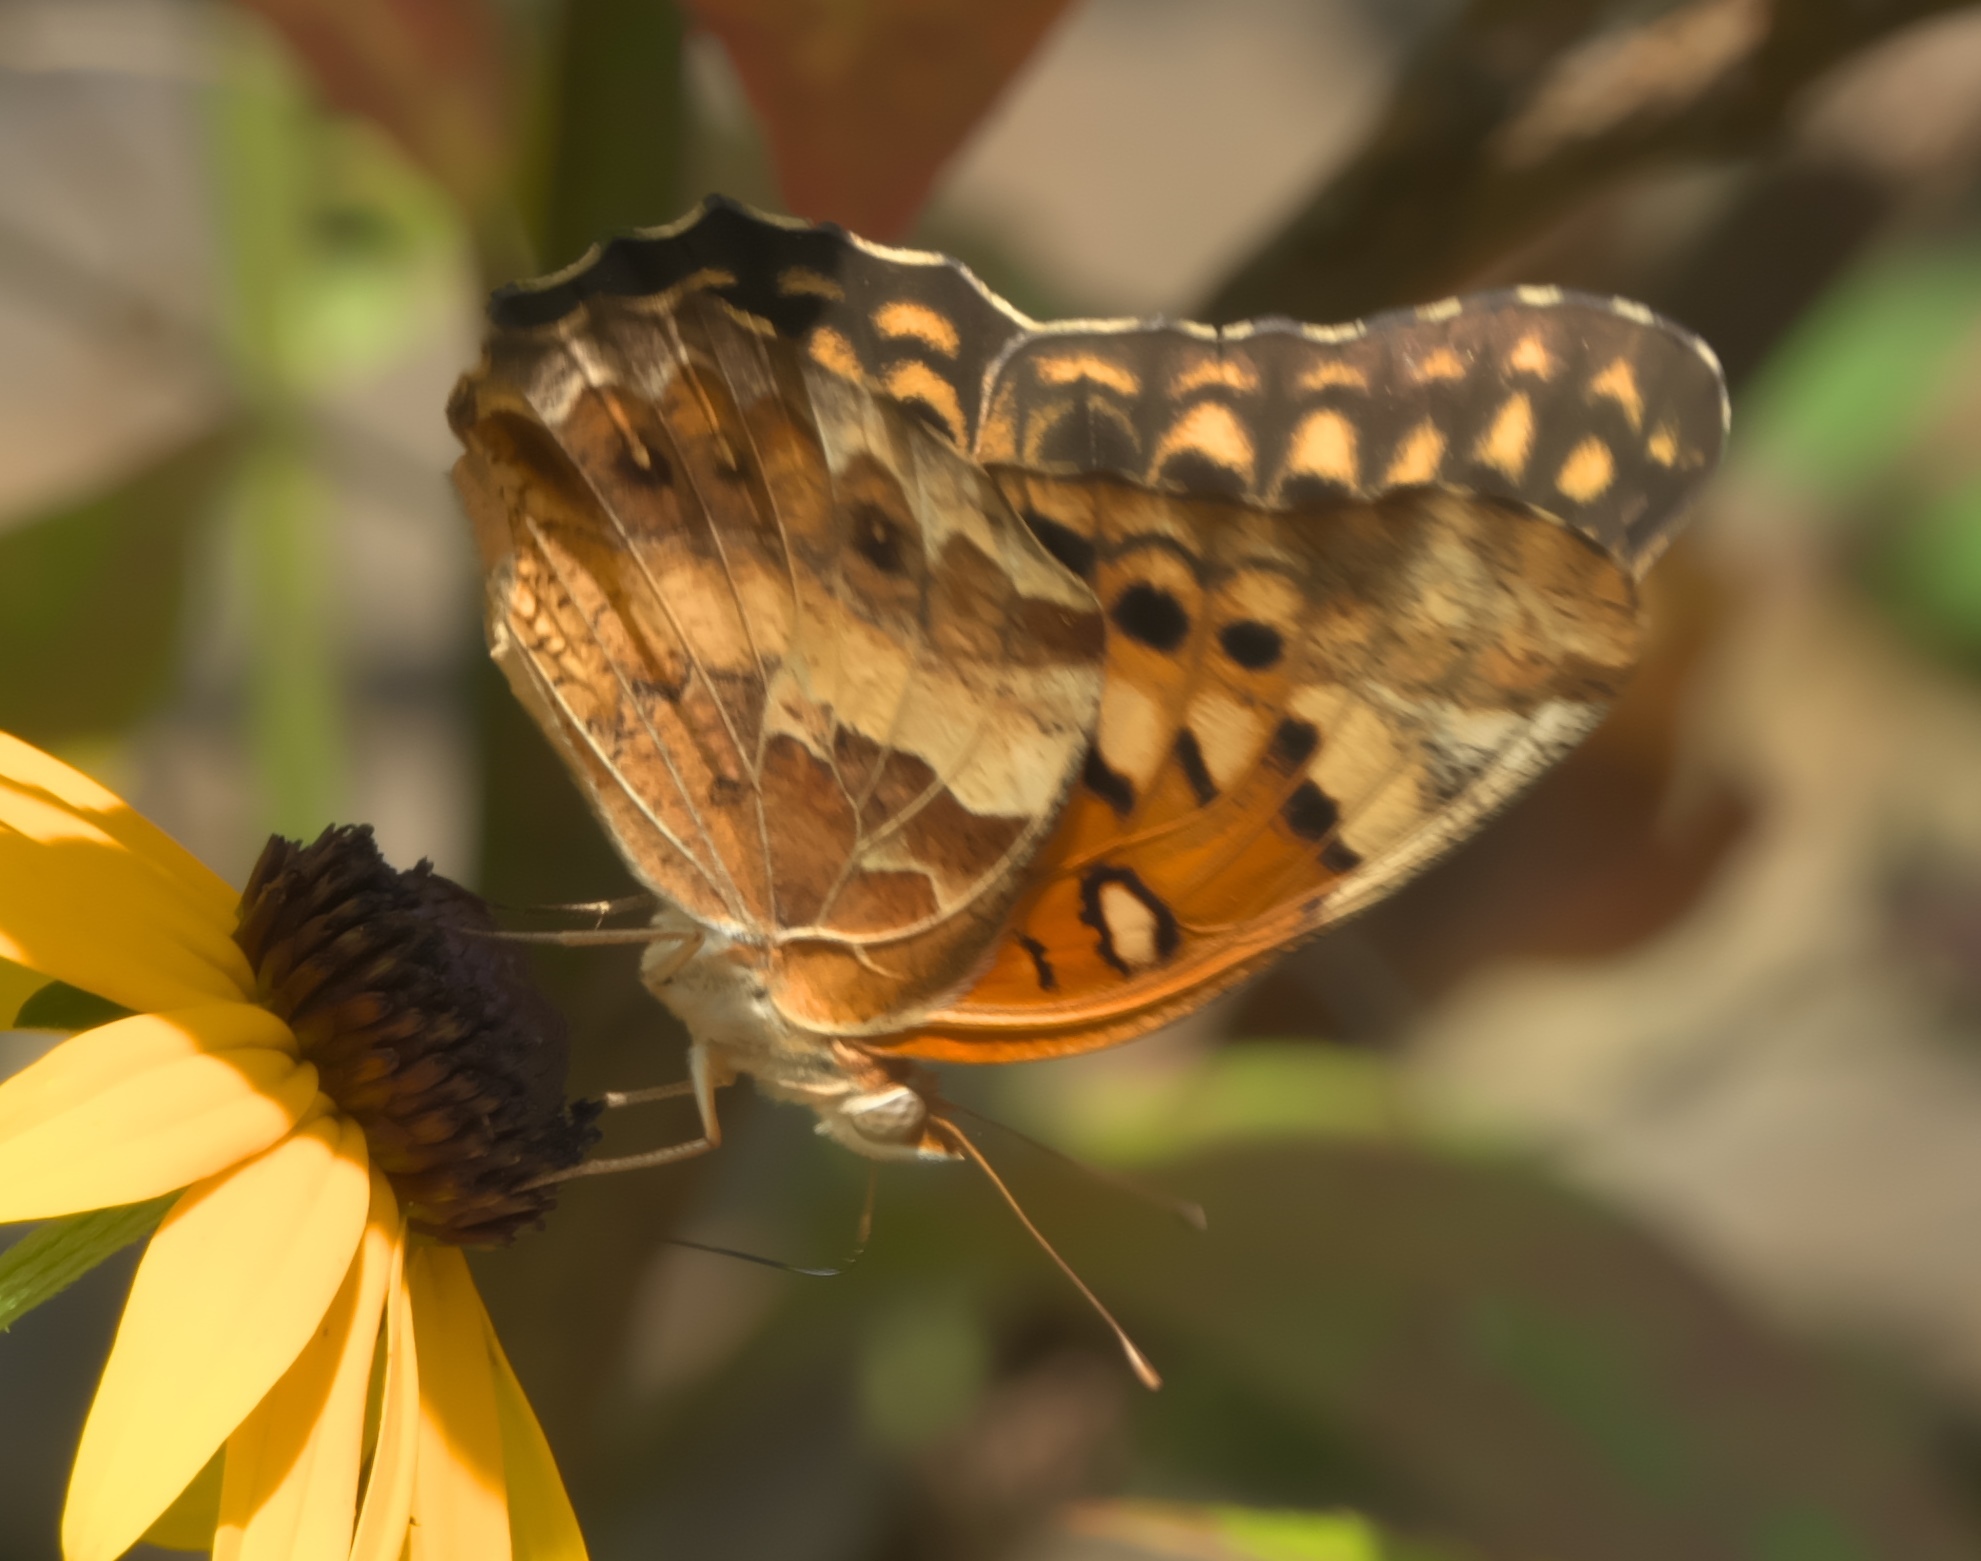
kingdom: Animalia
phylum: Arthropoda
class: Insecta
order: Lepidoptera
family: Nymphalidae
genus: Euptoieta
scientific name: Euptoieta claudia
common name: Variegated fritillary
